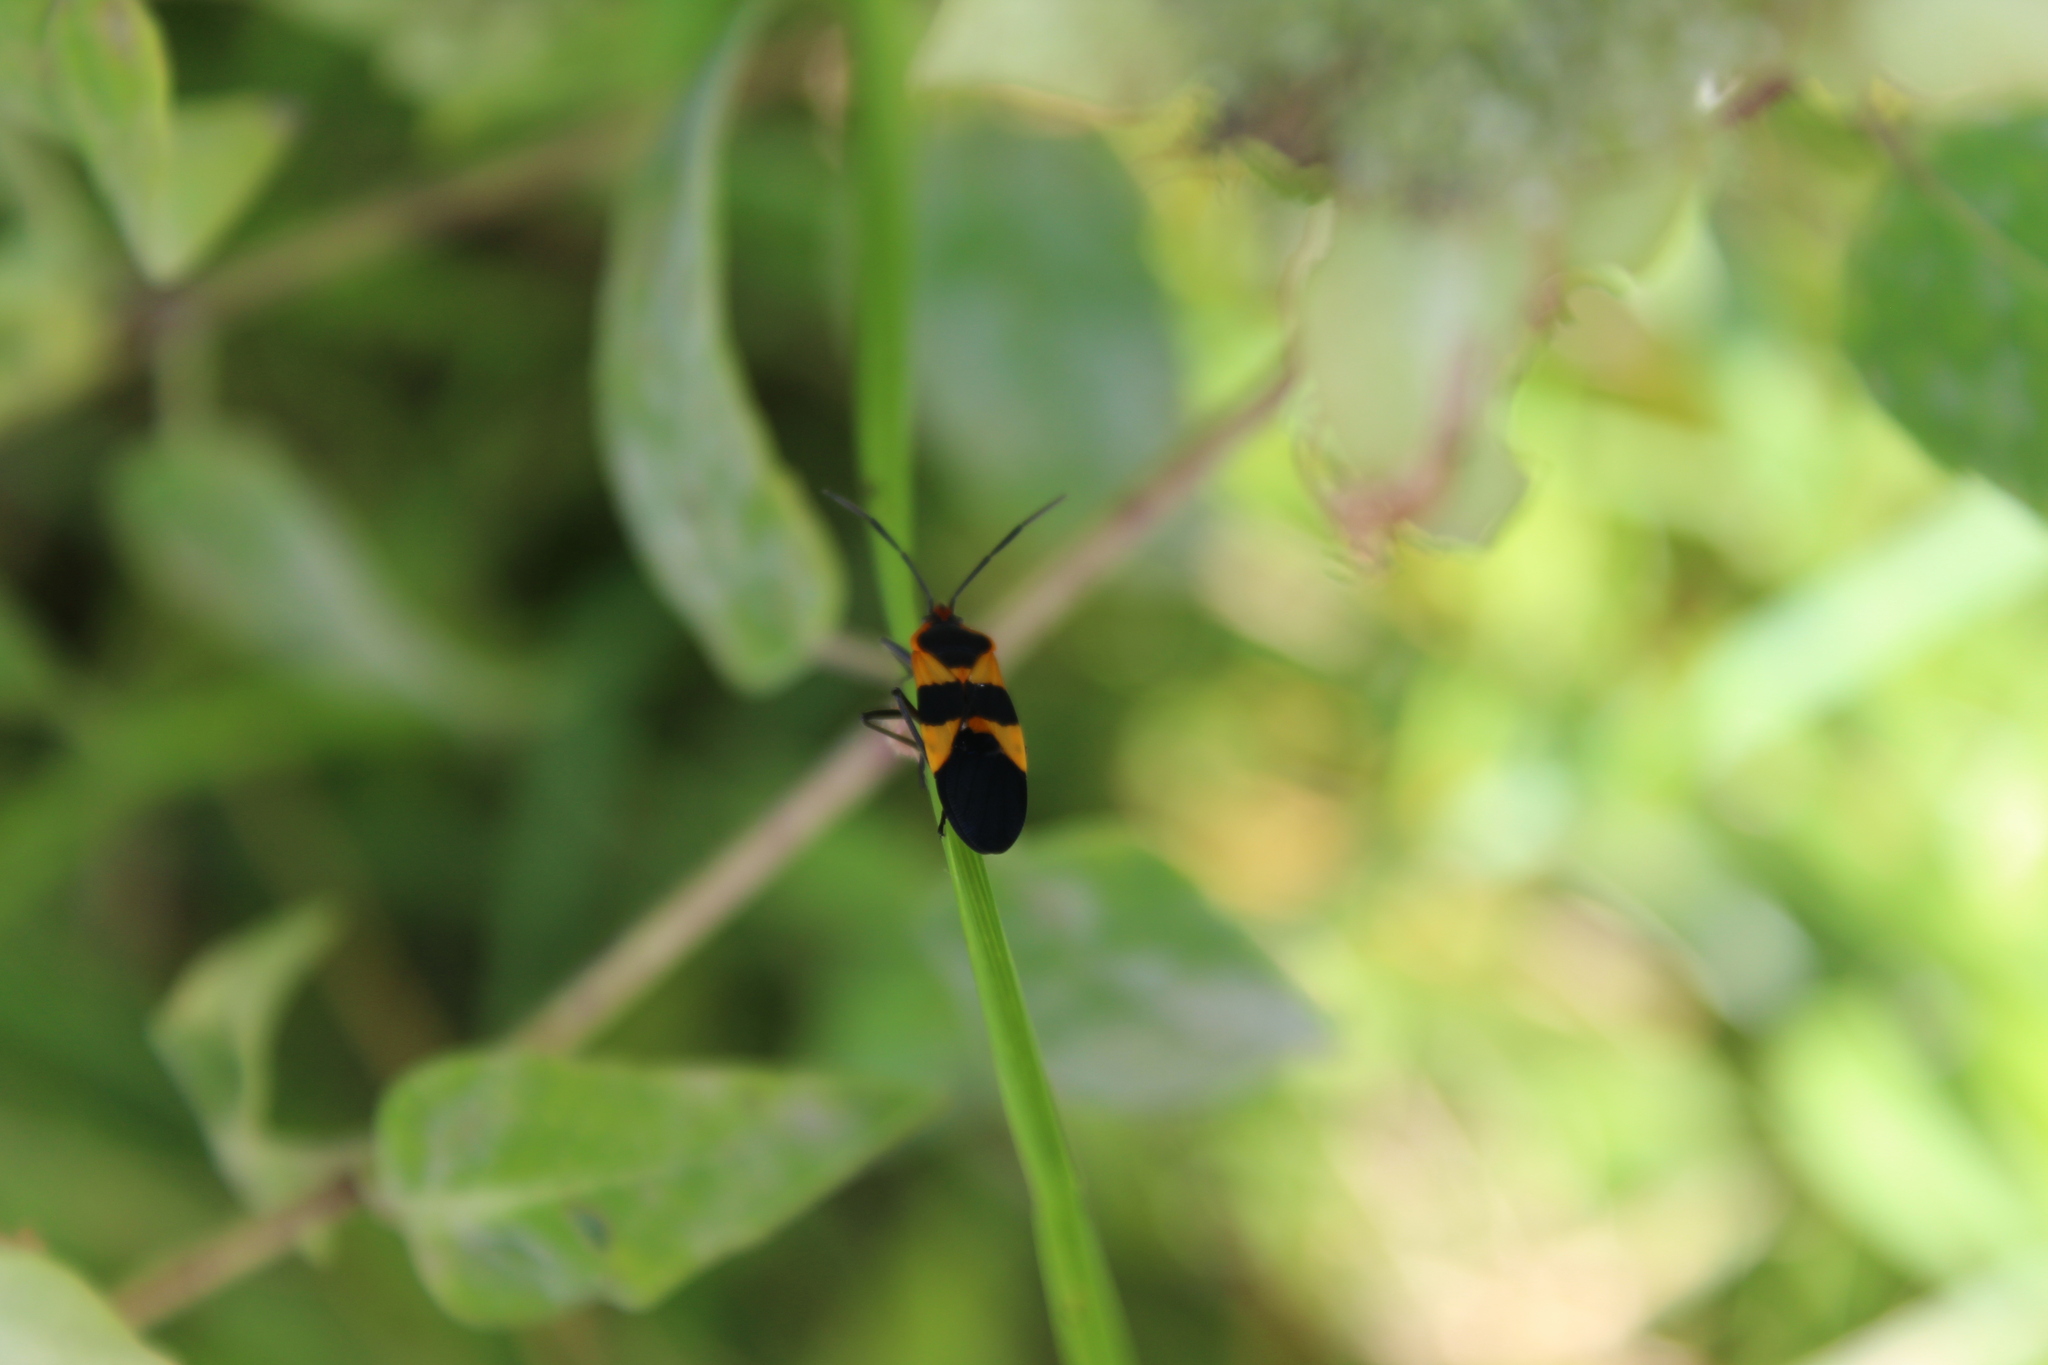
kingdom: Animalia
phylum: Arthropoda
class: Insecta
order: Hemiptera
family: Lygaeidae
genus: Oncopeltus
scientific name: Oncopeltus fasciatus
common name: Large milkweed bug
